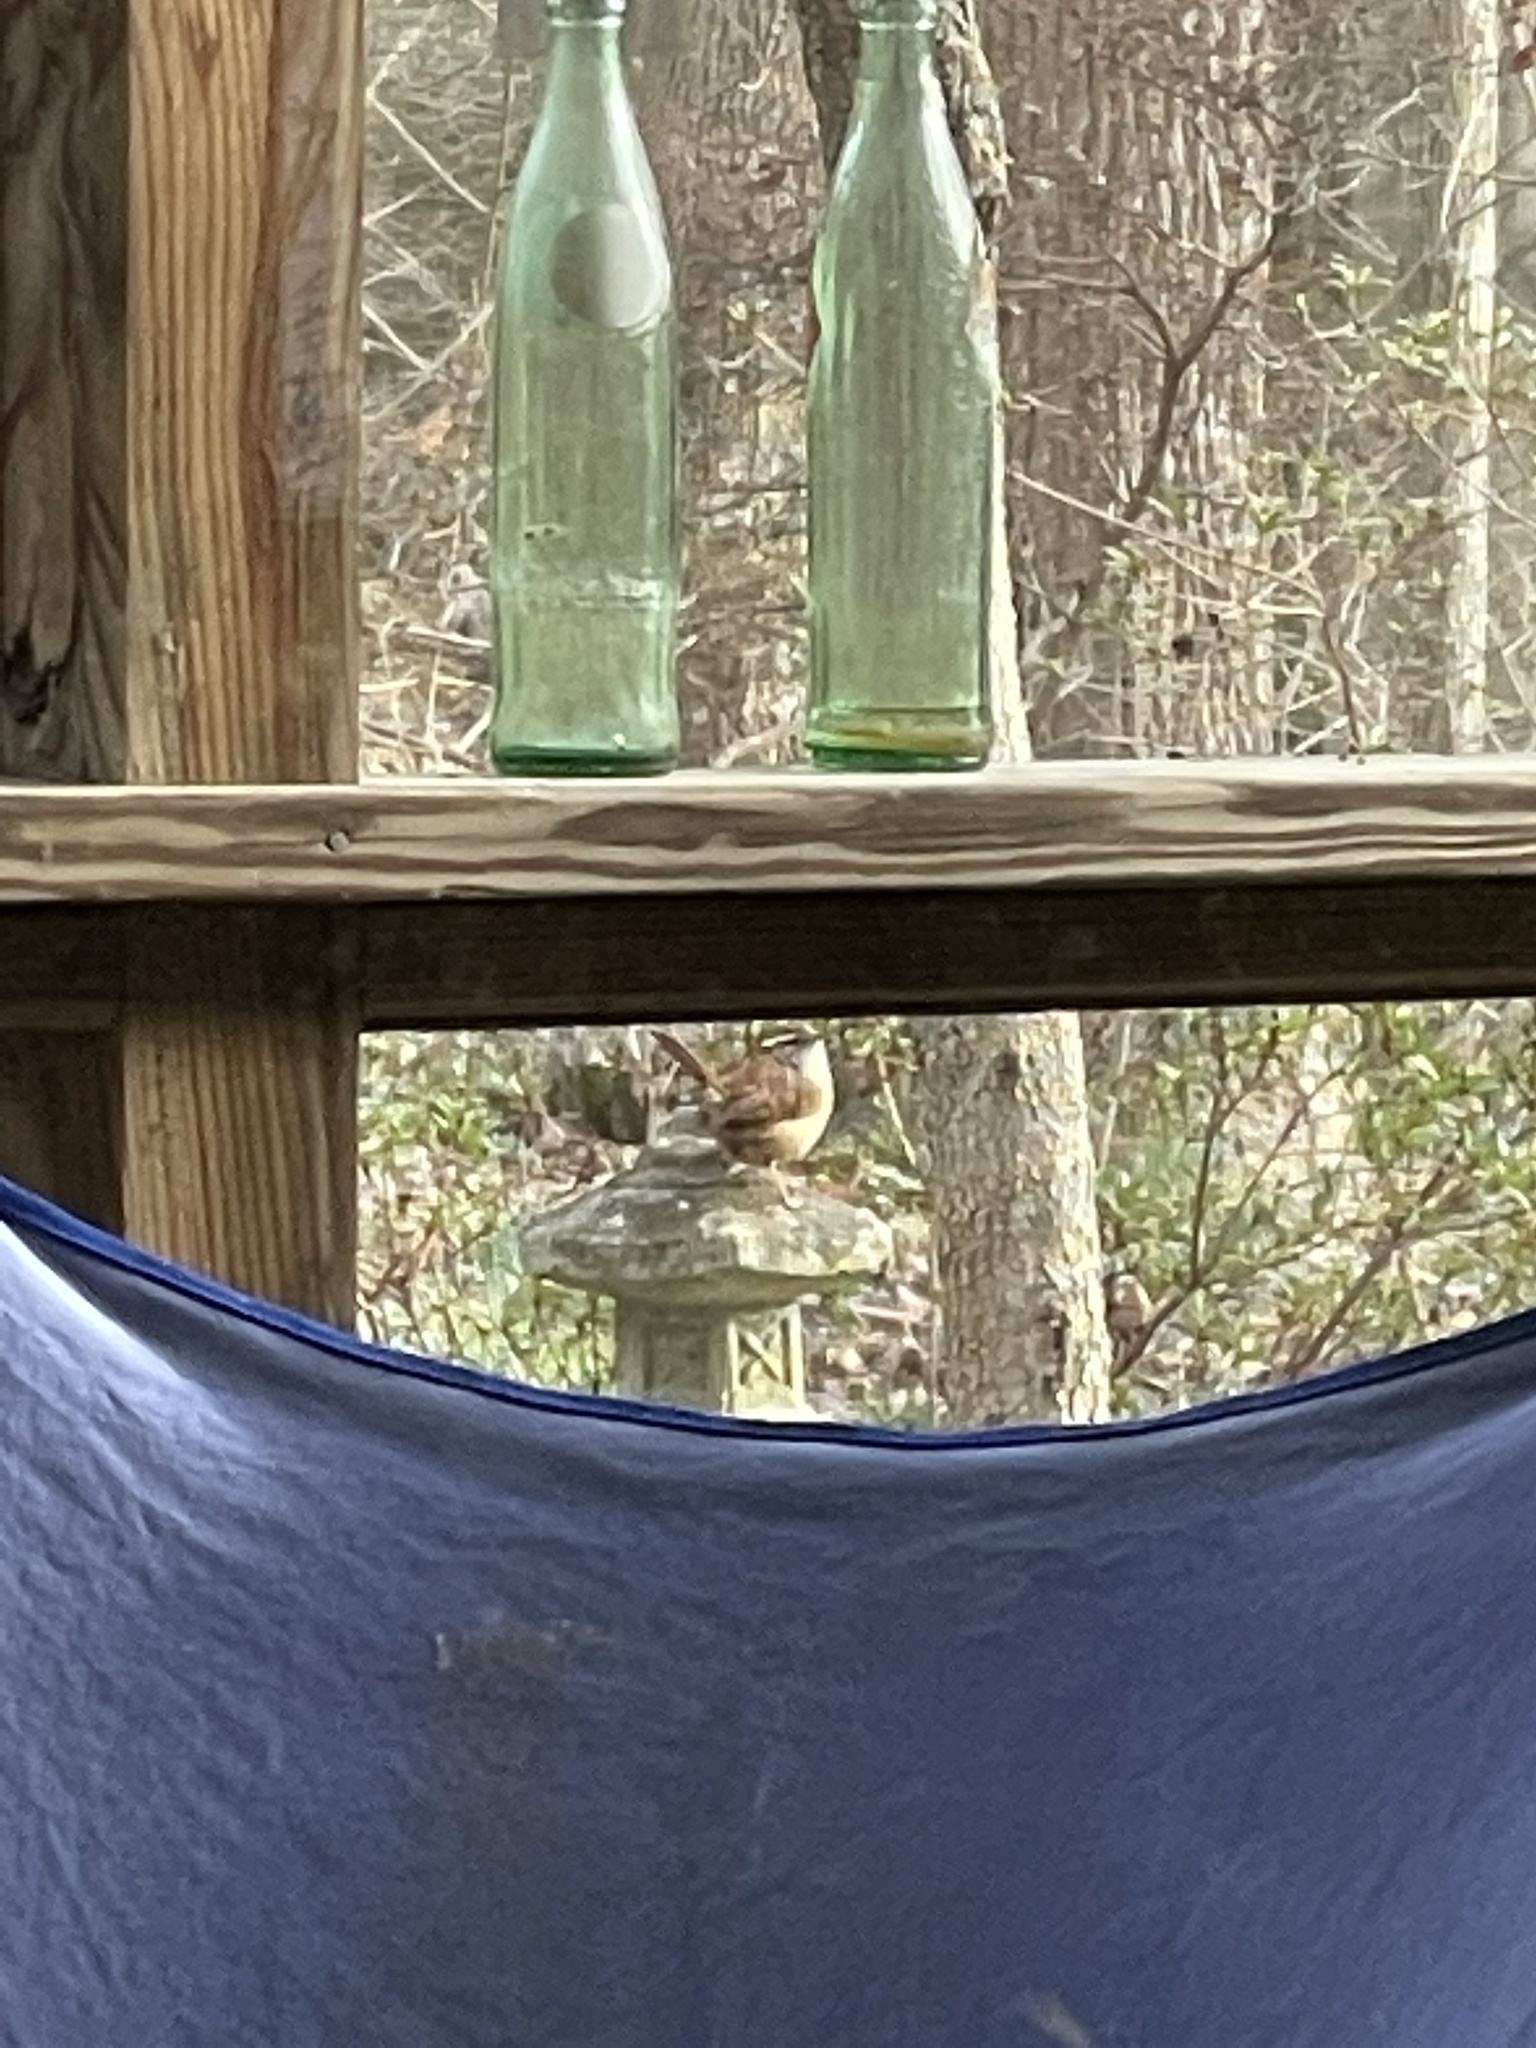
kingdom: Animalia
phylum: Chordata
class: Aves
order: Passeriformes
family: Troglodytidae
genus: Thryothorus
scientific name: Thryothorus ludovicianus
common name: Carolina wren
